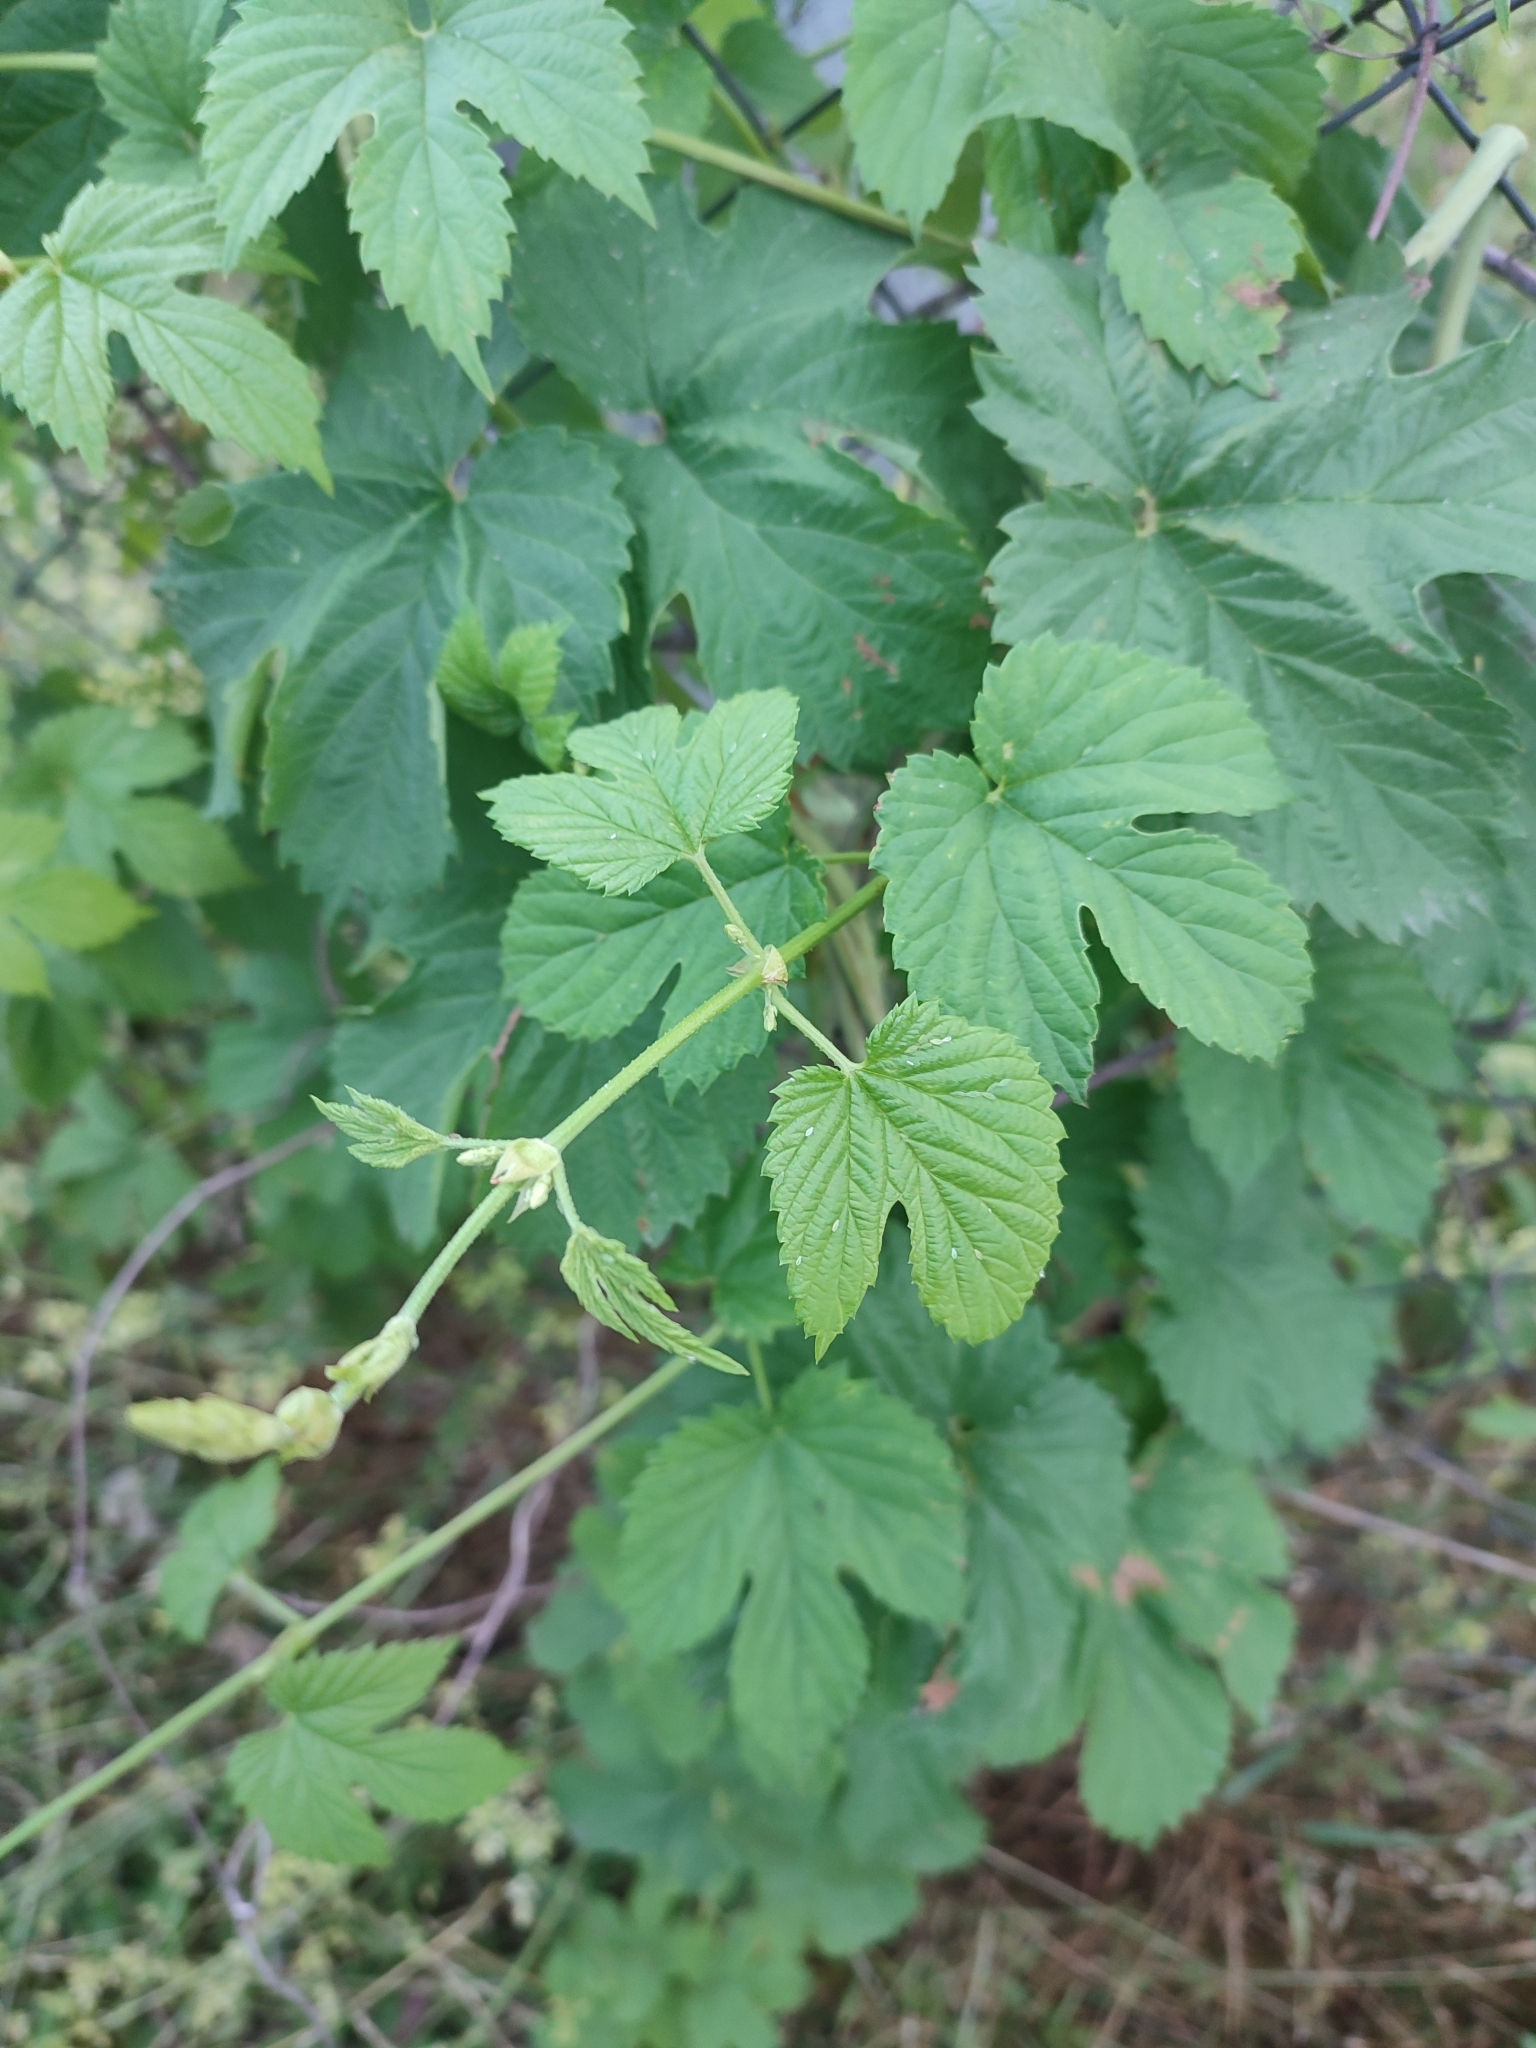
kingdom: Plantae
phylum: Tracheophyta
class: Magnoliopsida
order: Rosales
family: Cannabaceae
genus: Humulus
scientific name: Humulus lupulus
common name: Hop
